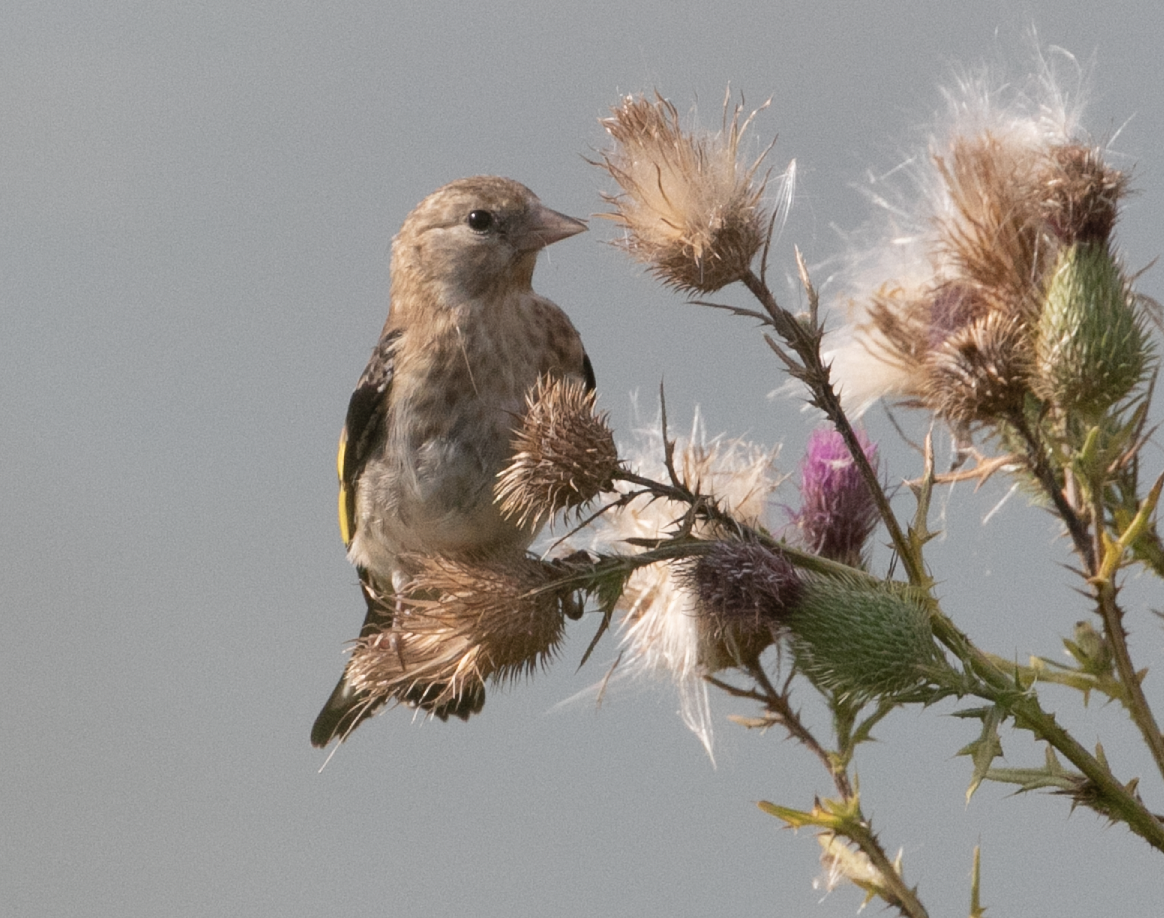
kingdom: Animalia
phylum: Chordata
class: Aves
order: Passeriformes
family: Fringillidae
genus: Carduelis
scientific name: Carduelis carduelis
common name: European goldfinch
